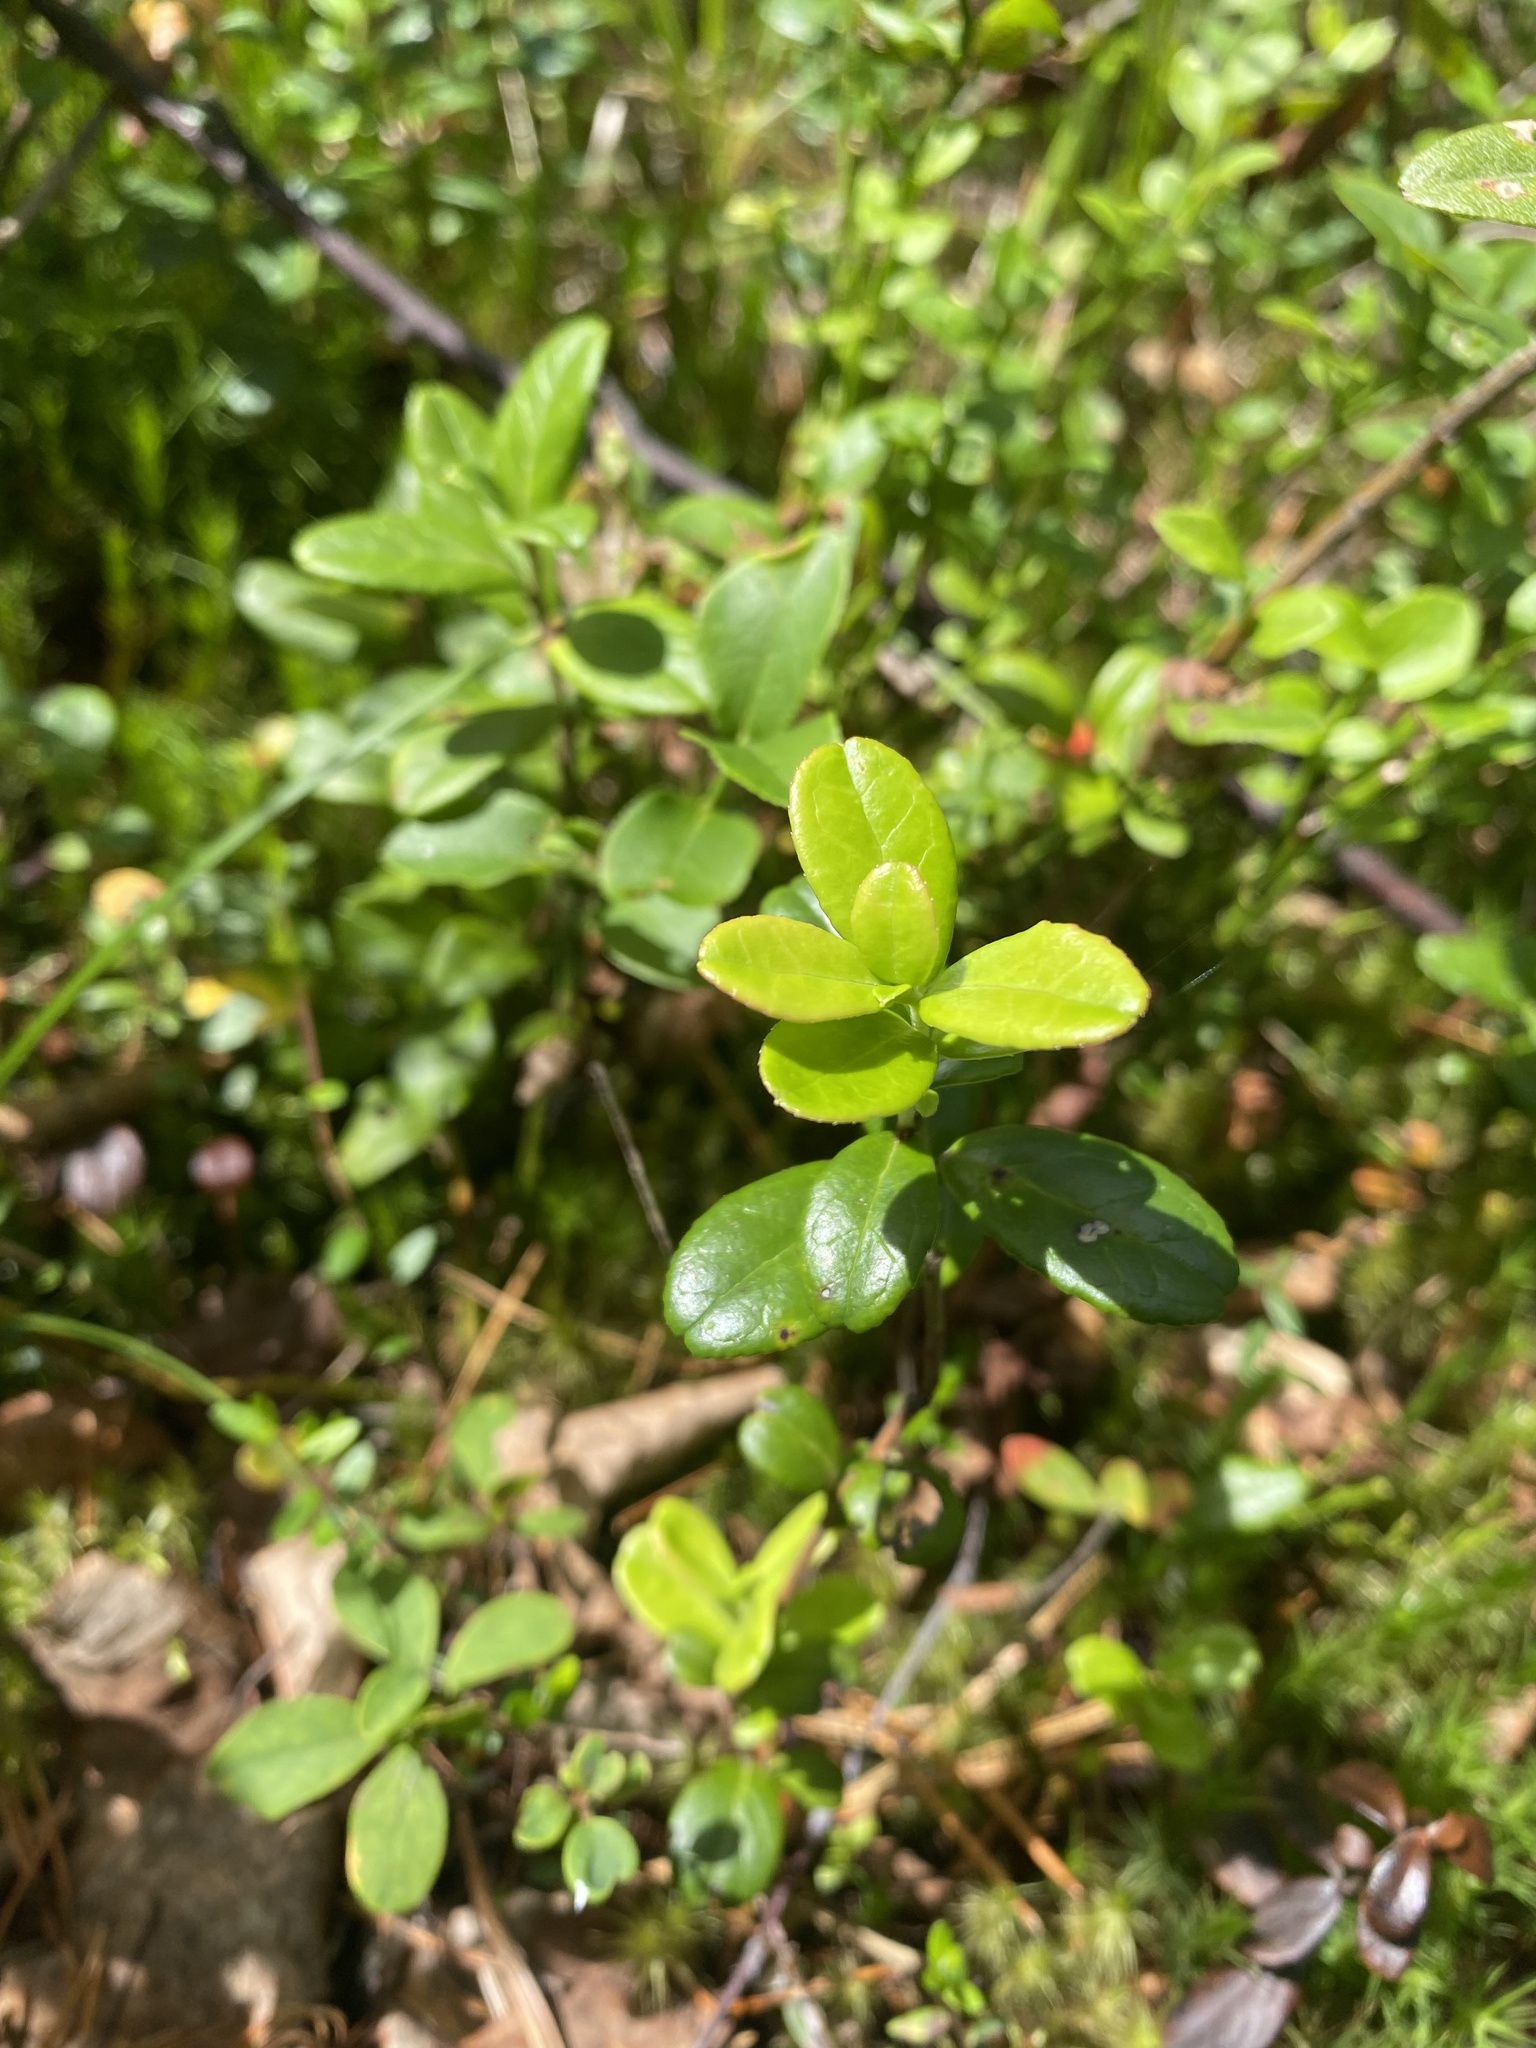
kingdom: Plantae
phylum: Tracheophyta
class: Magnoliopsida
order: Ericales
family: Ericaceae
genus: Vaccinium
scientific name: Vaccinium vitis-idaea
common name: Cowberry
